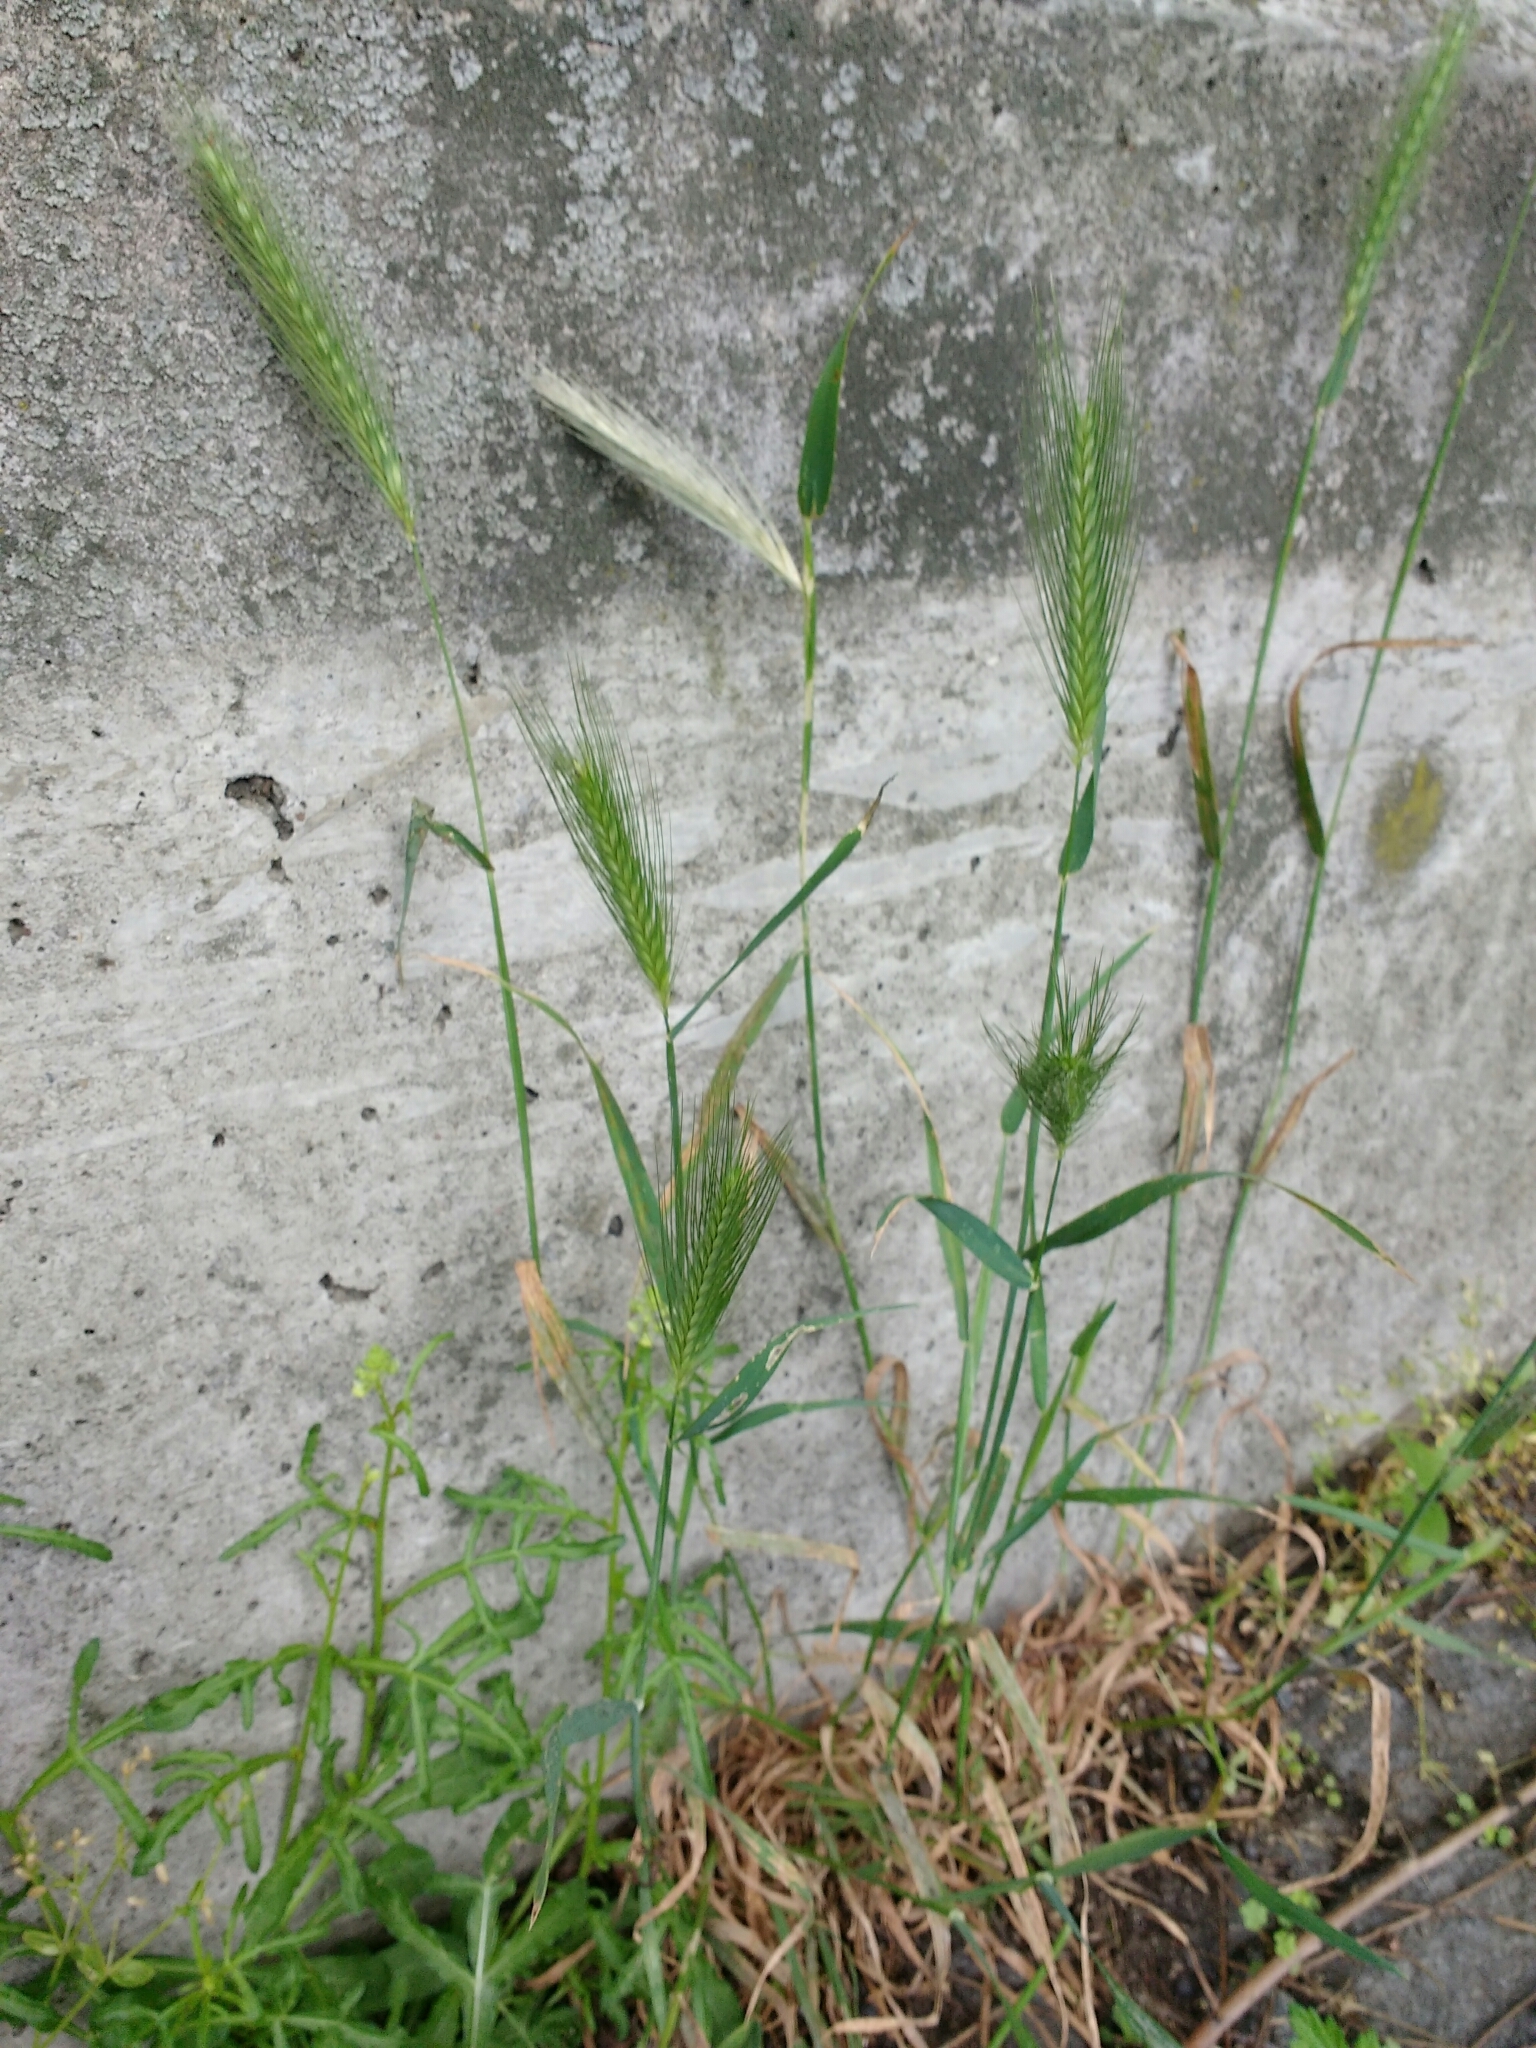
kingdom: Plantae
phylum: Tracheophyta
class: Liliopsida
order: Poales
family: Poaceae
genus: Hordeum
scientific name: Hordeum murinum
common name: Wall barley
